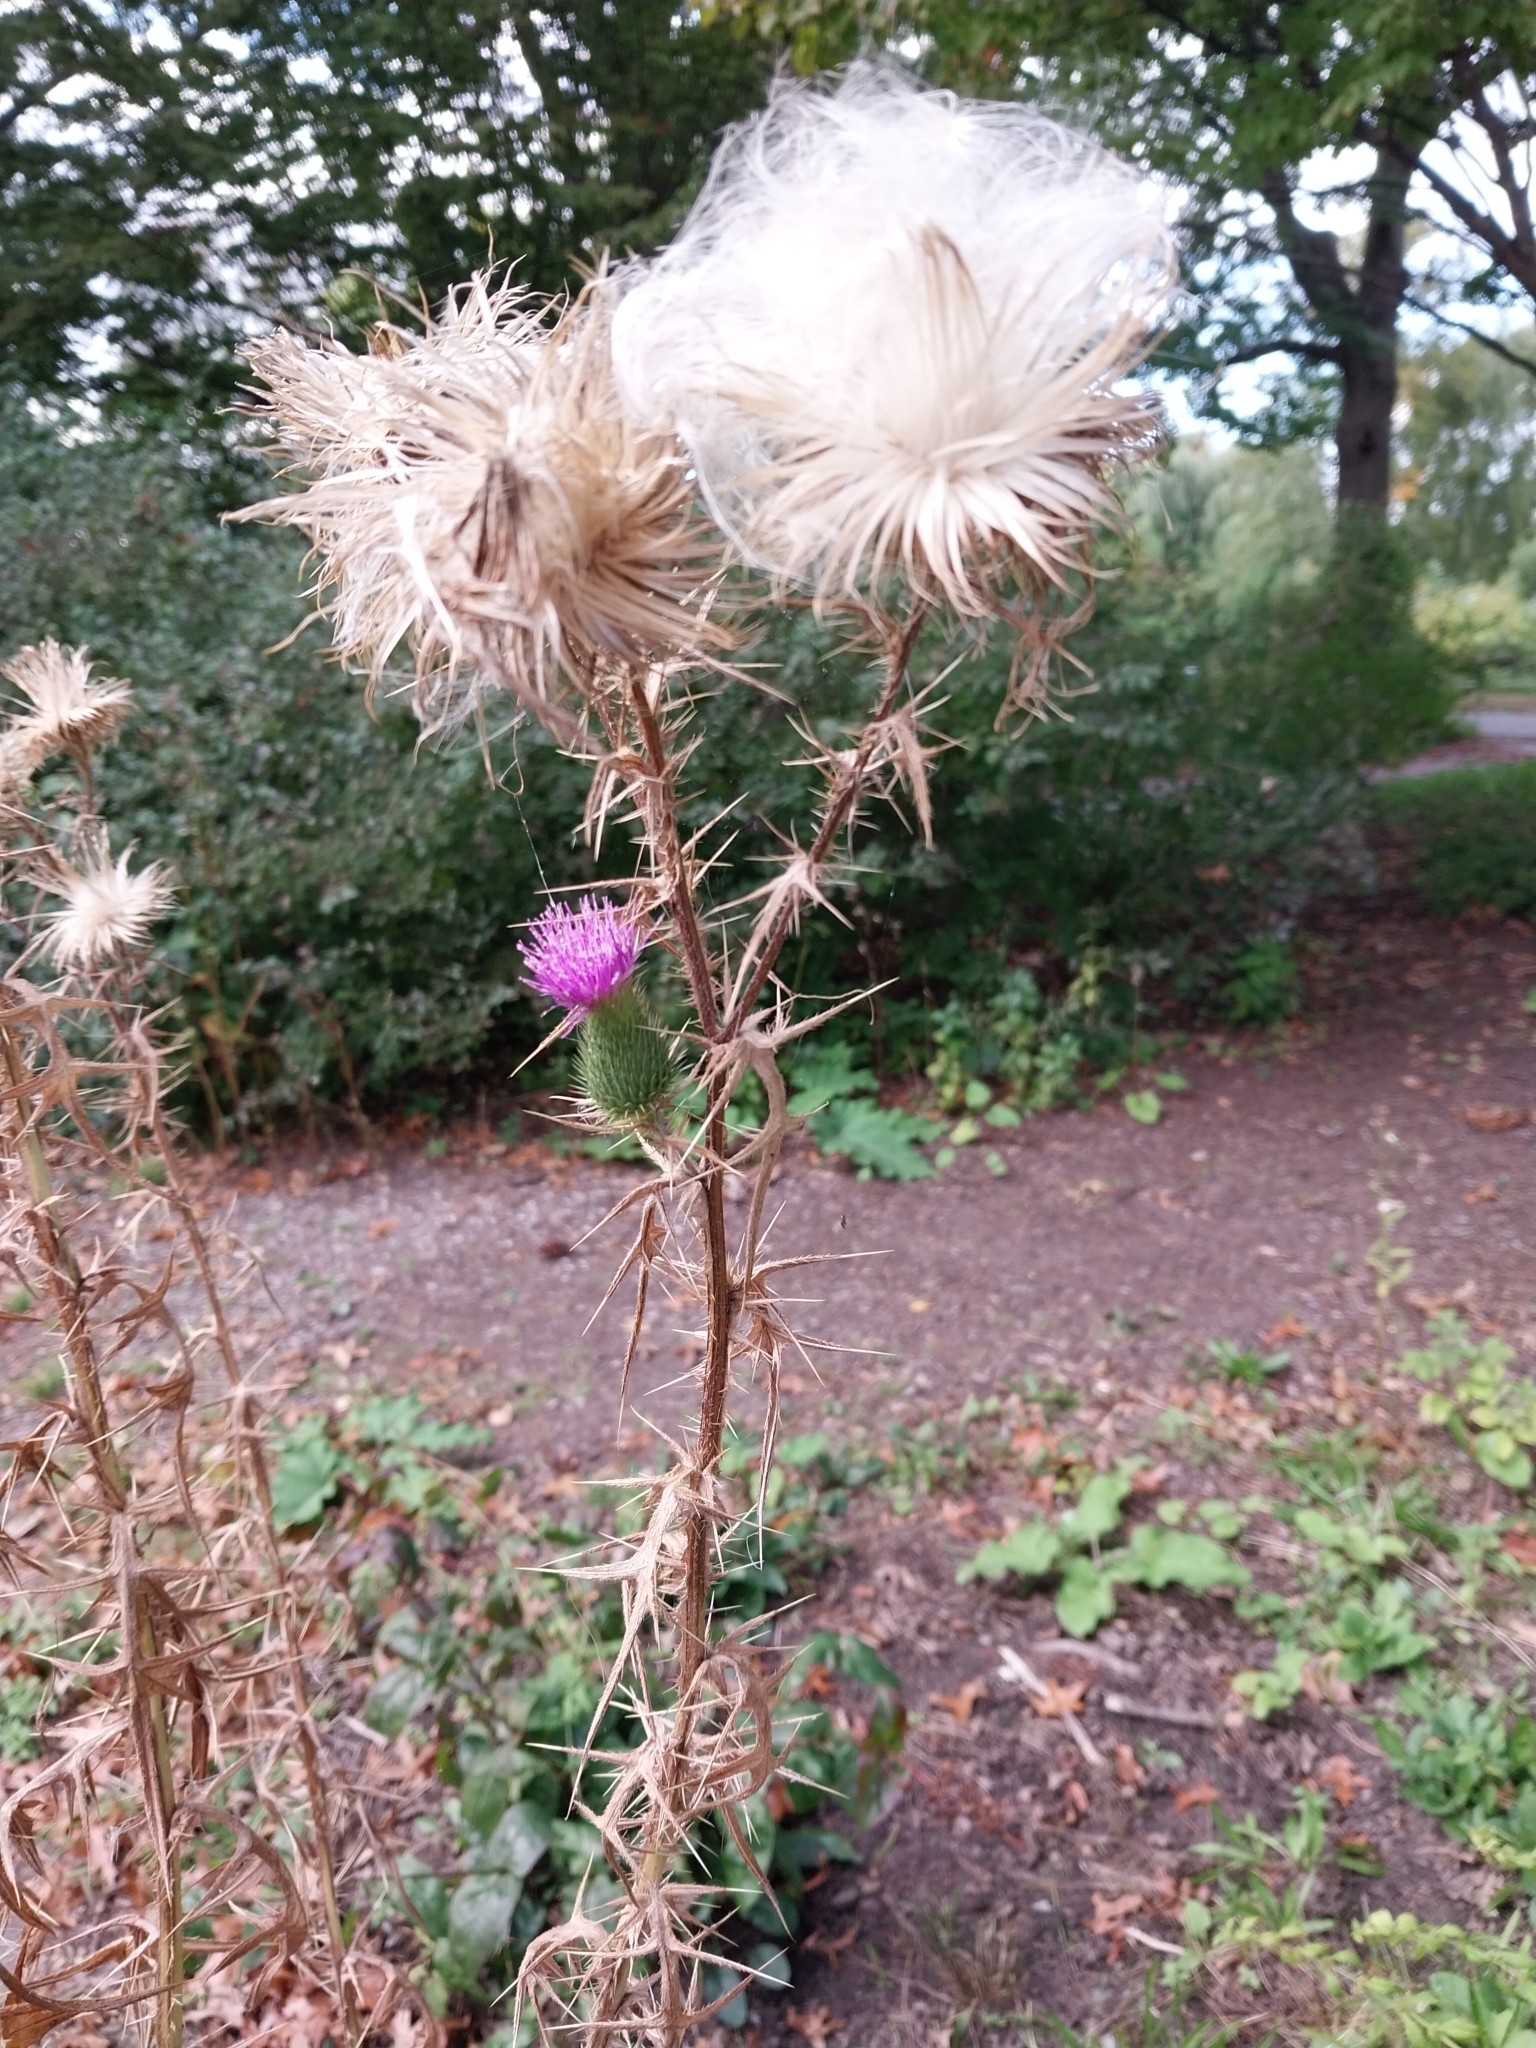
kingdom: Plantae
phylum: Tracheophyta
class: Magnoliopsida
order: Asterales
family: Asteraceae
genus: Cirsium
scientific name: Cirsium vulgare
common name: Bull thistle
